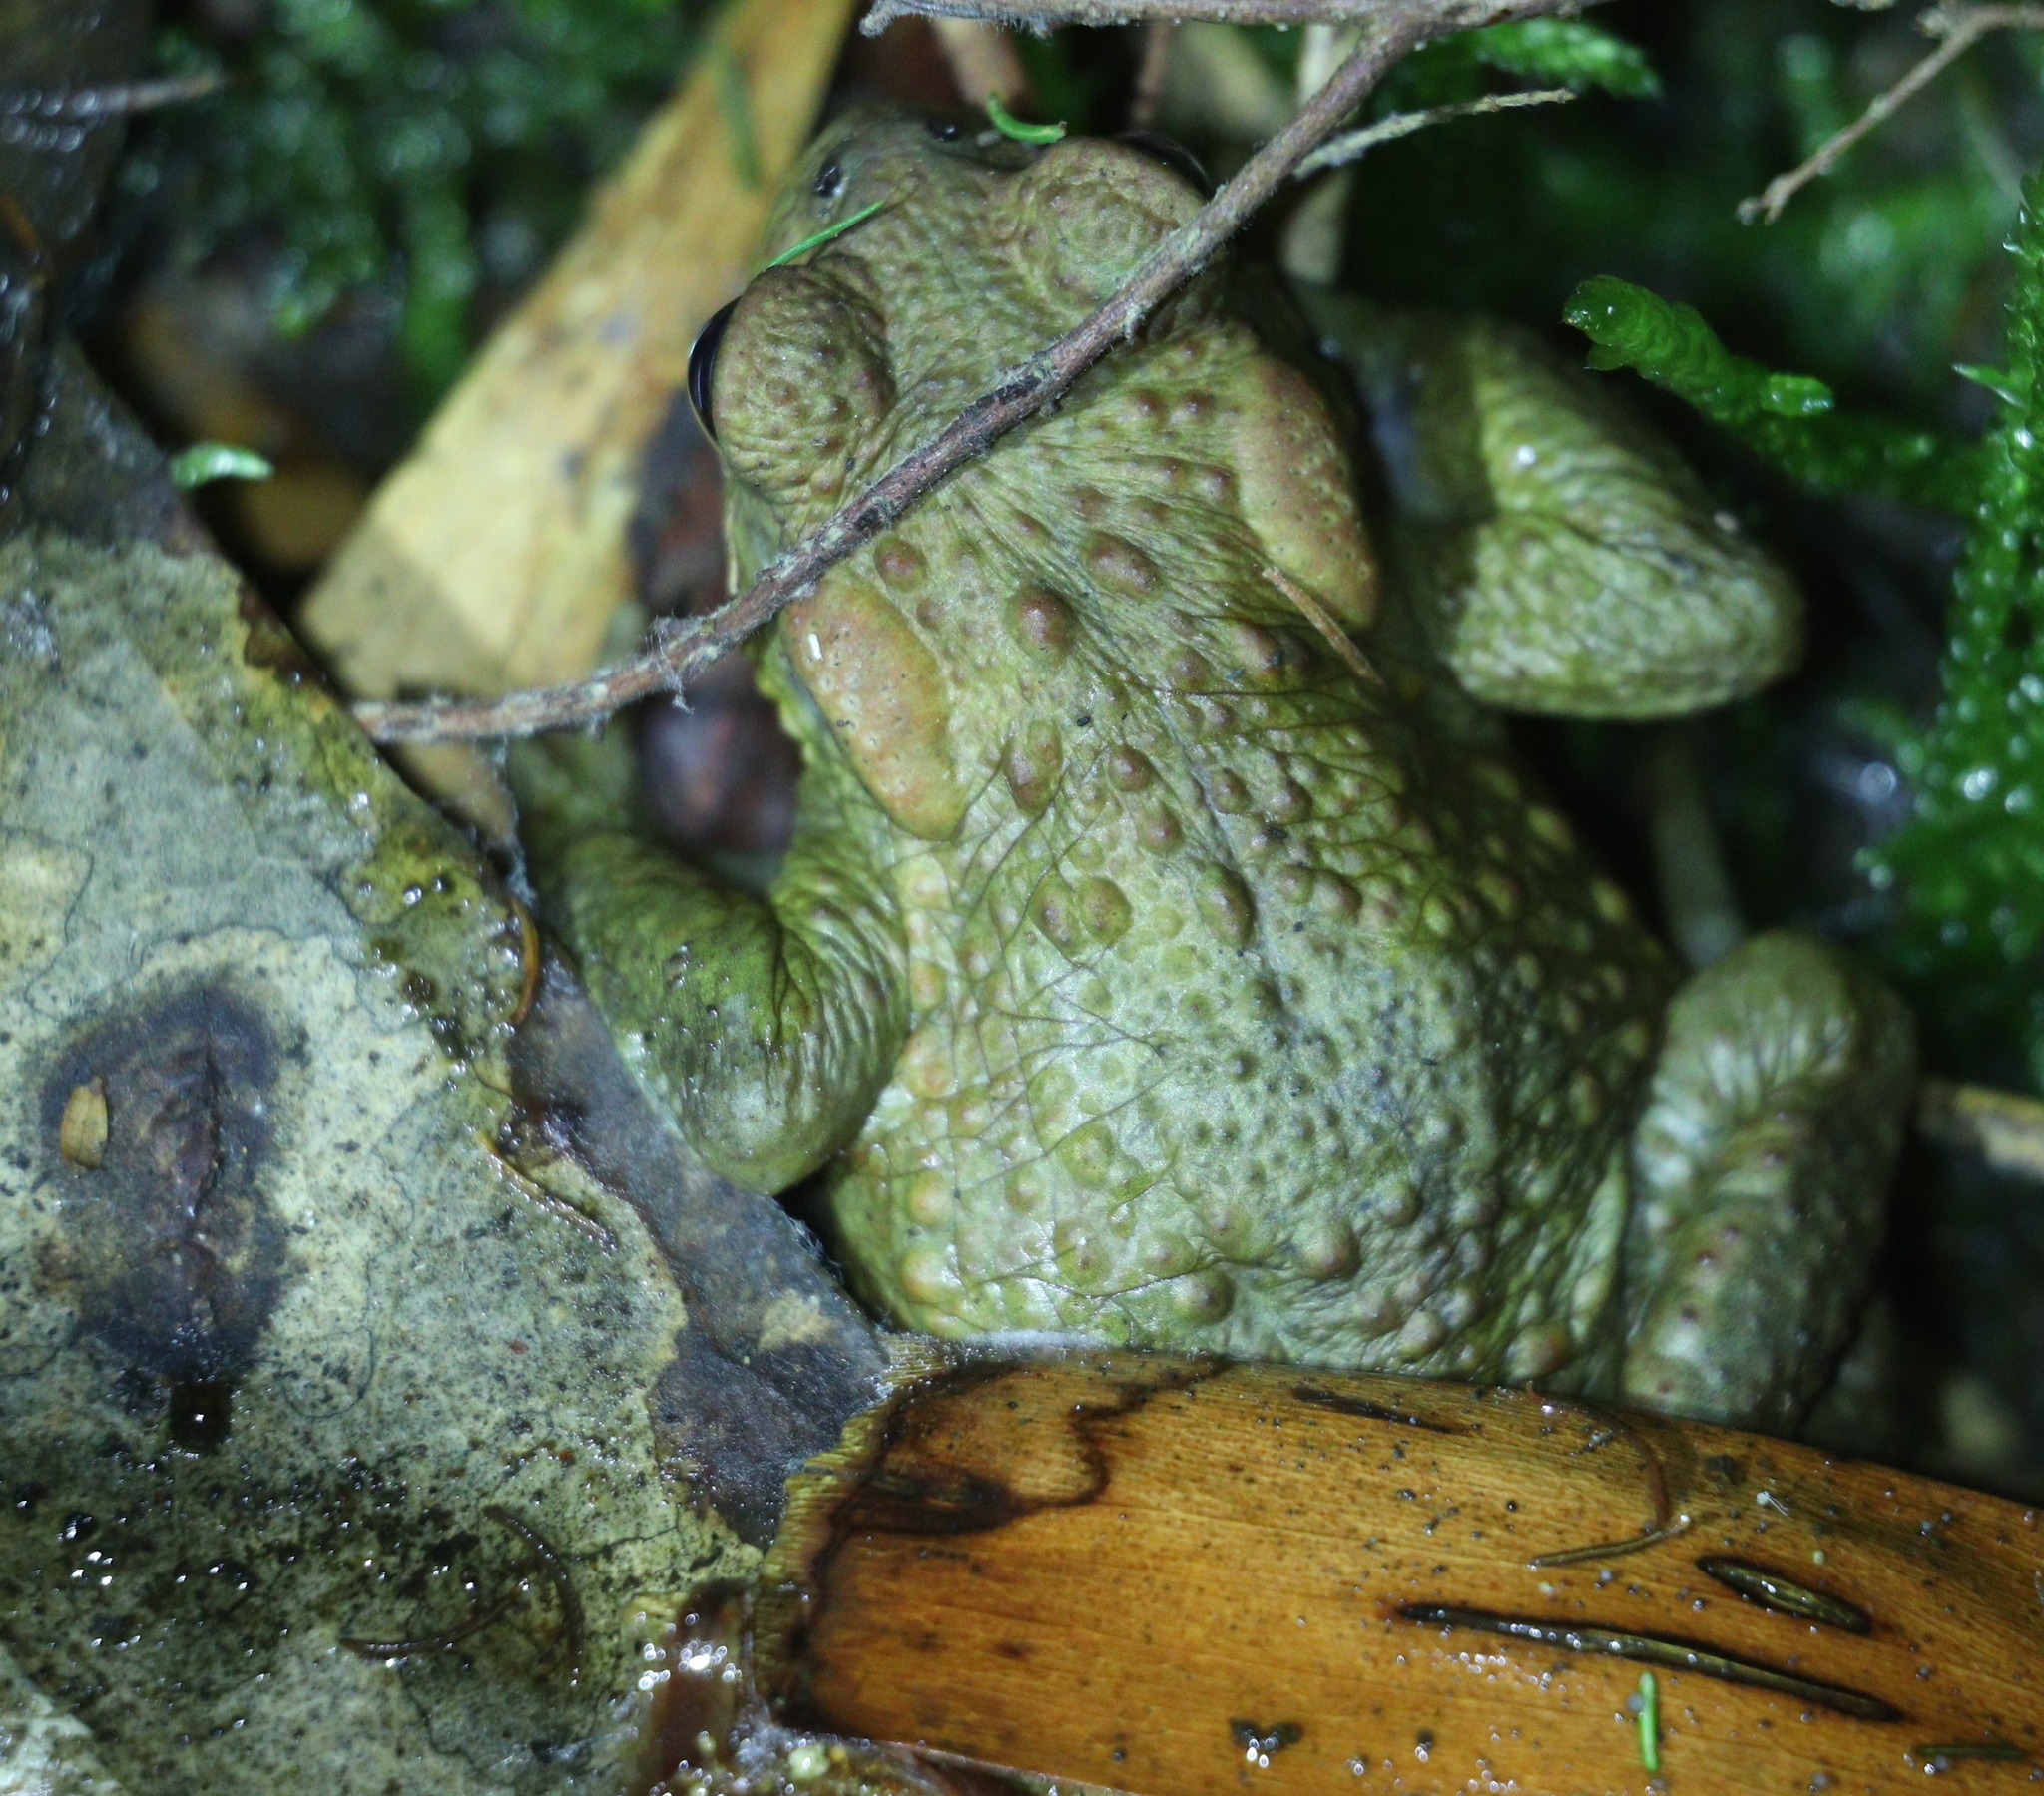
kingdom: Animalia
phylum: Chordata
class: Amphibia
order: Anura
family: Bufonidae
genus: Bufo
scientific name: Bufo spinosus
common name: Western common toad
